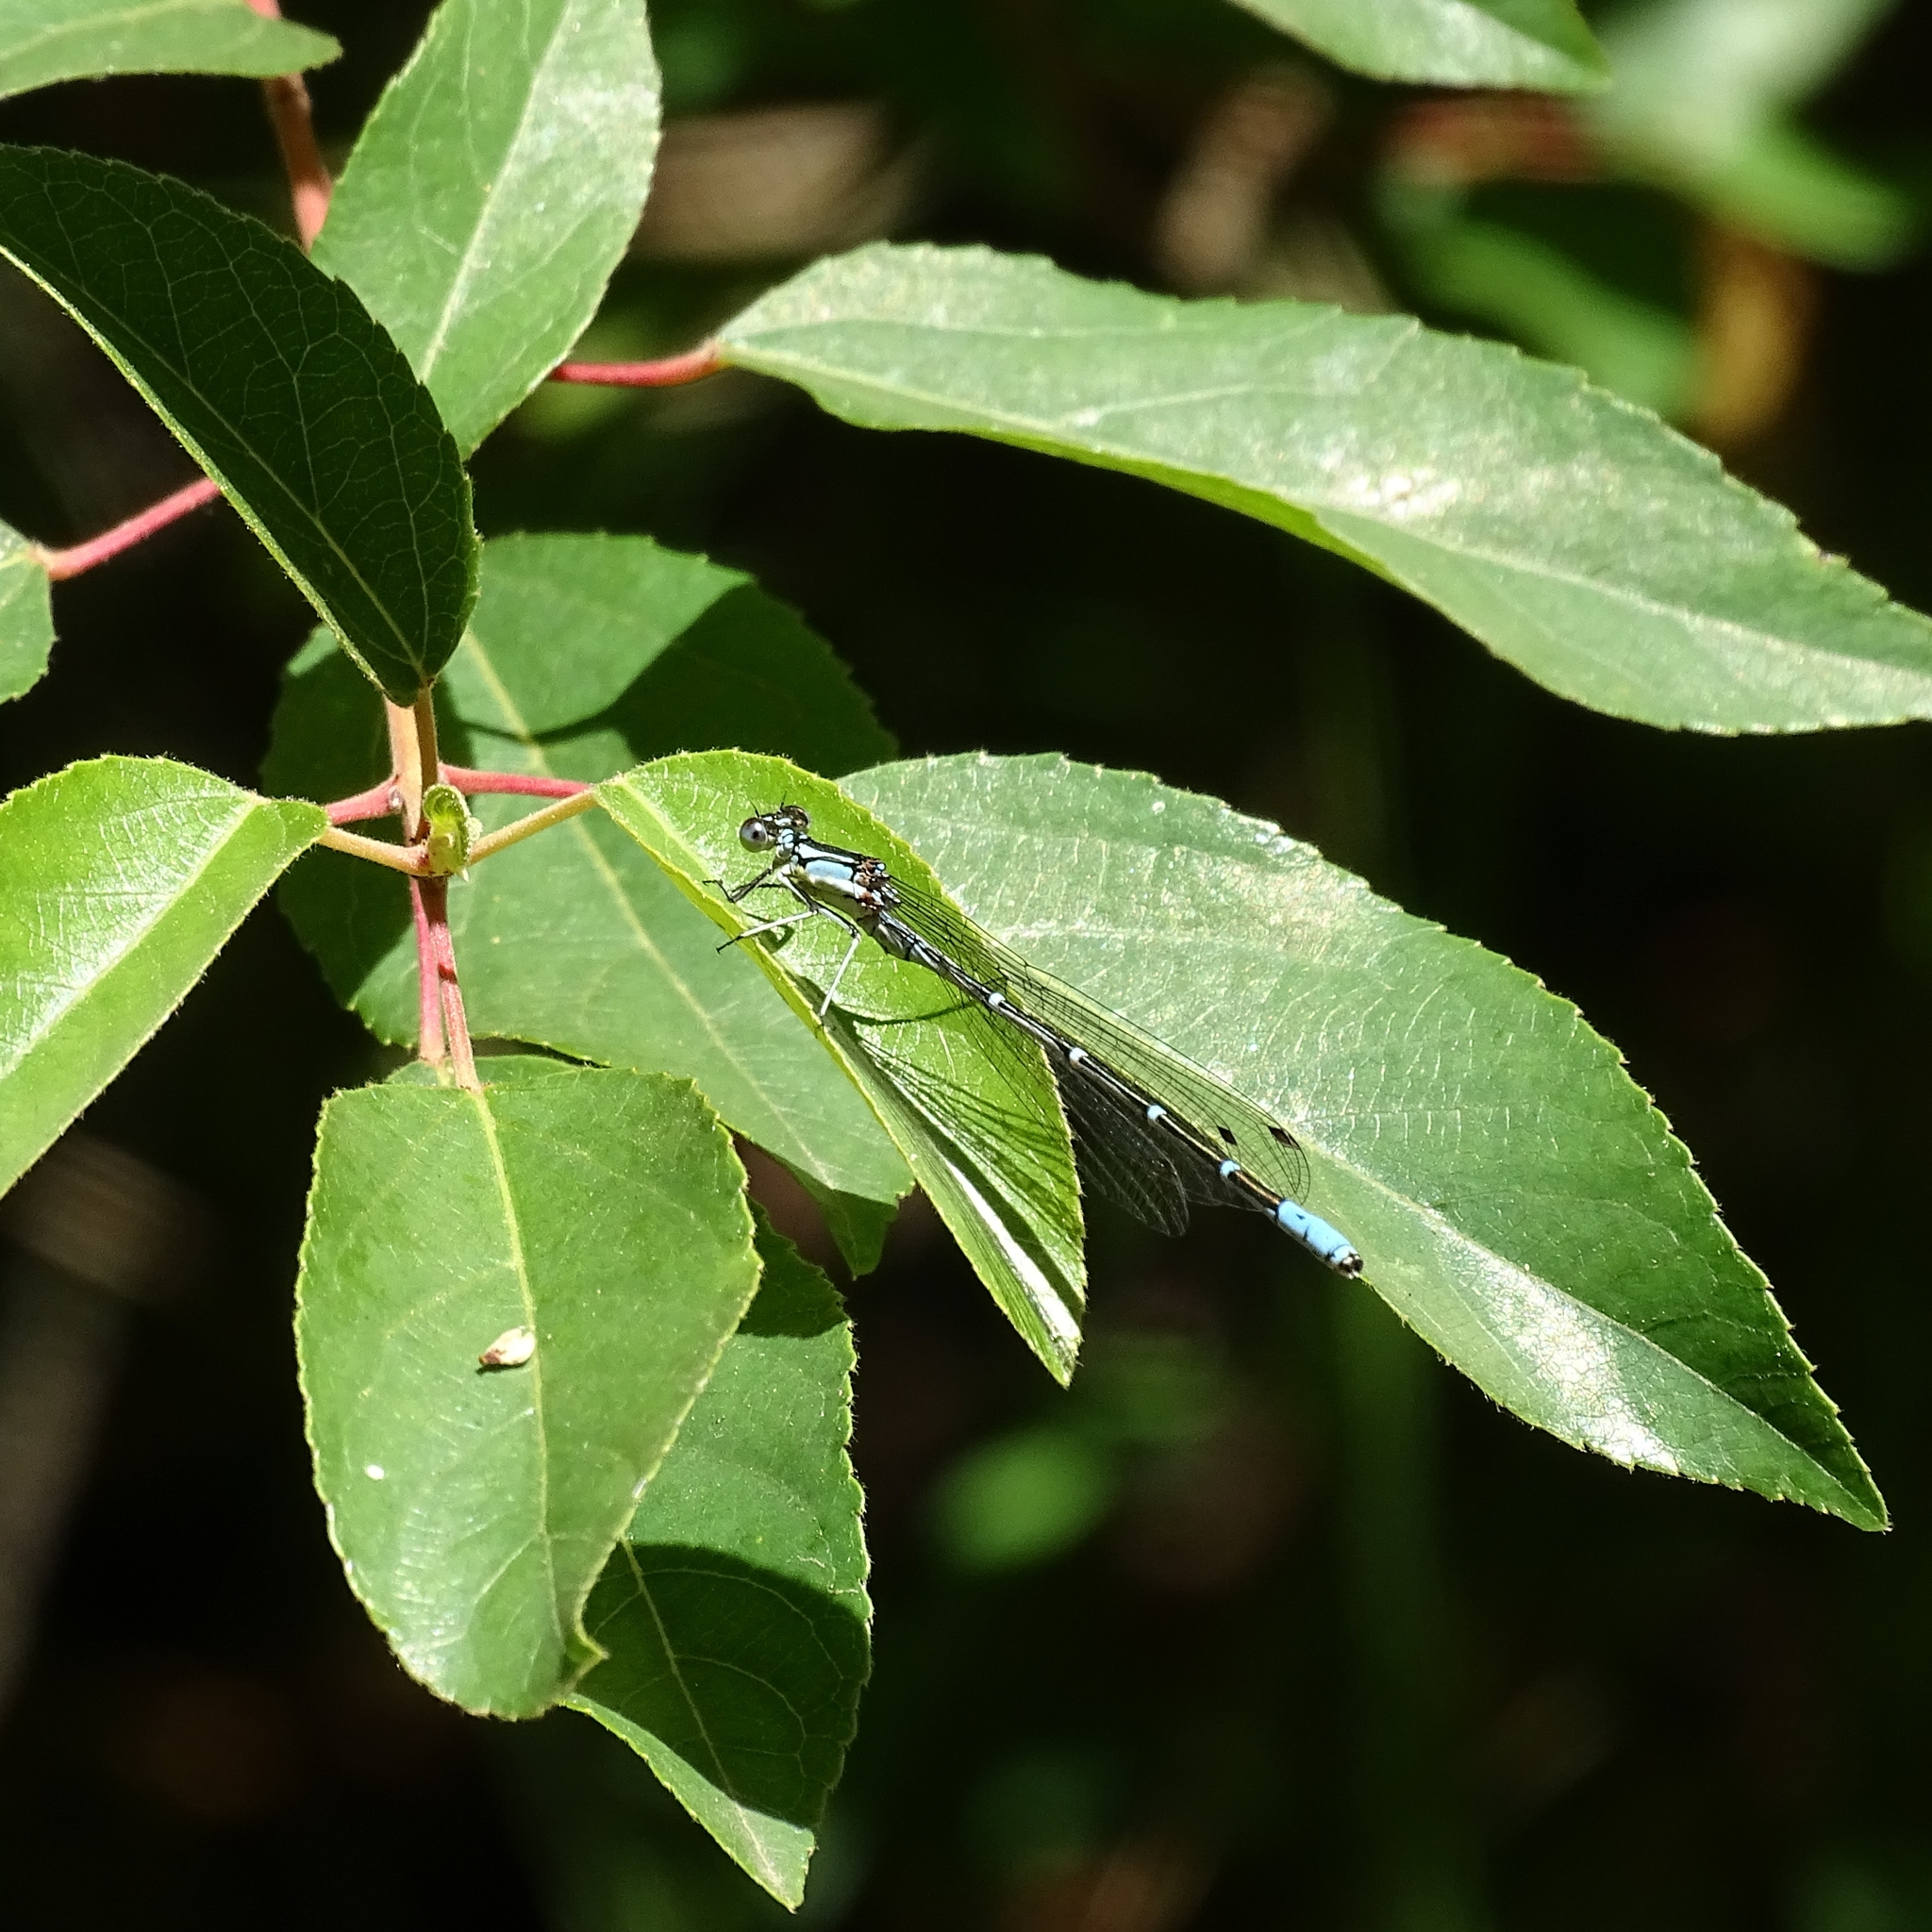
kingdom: Animalia
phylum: Arthropoda
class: Insecta
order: Odonata
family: Coenagrionidae
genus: Antiagrion
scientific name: Antiagrion gayi
